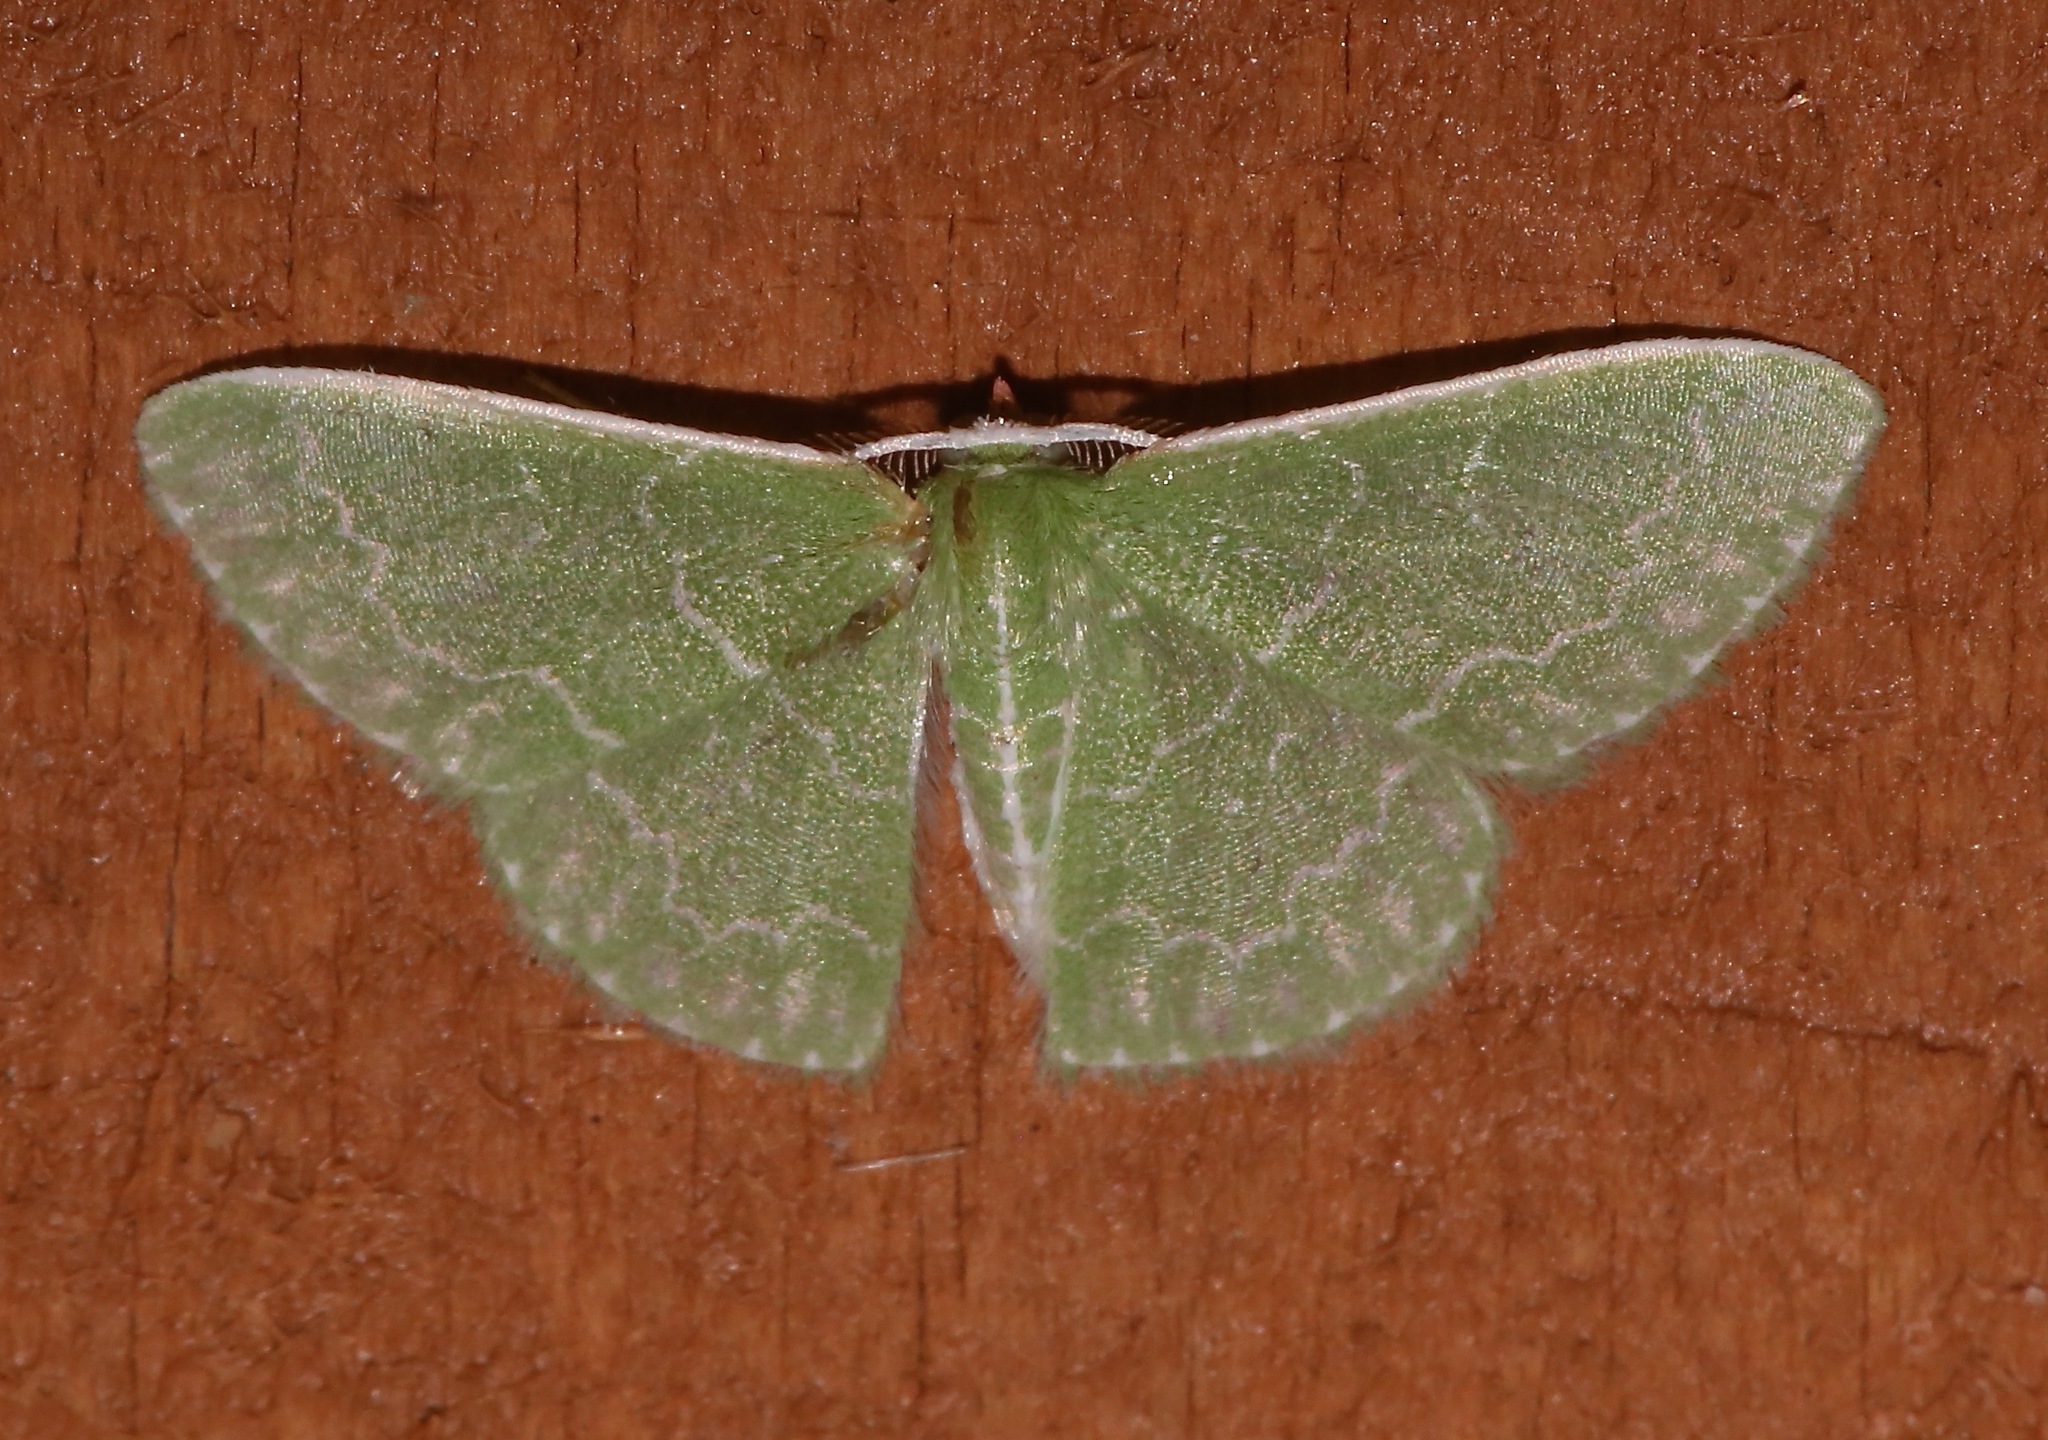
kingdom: Animalia
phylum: Arthropoda
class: Insecta
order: Lepidoptera
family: Geometridae
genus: Synchlora
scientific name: Synchlora frondaria
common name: Southern emerald
